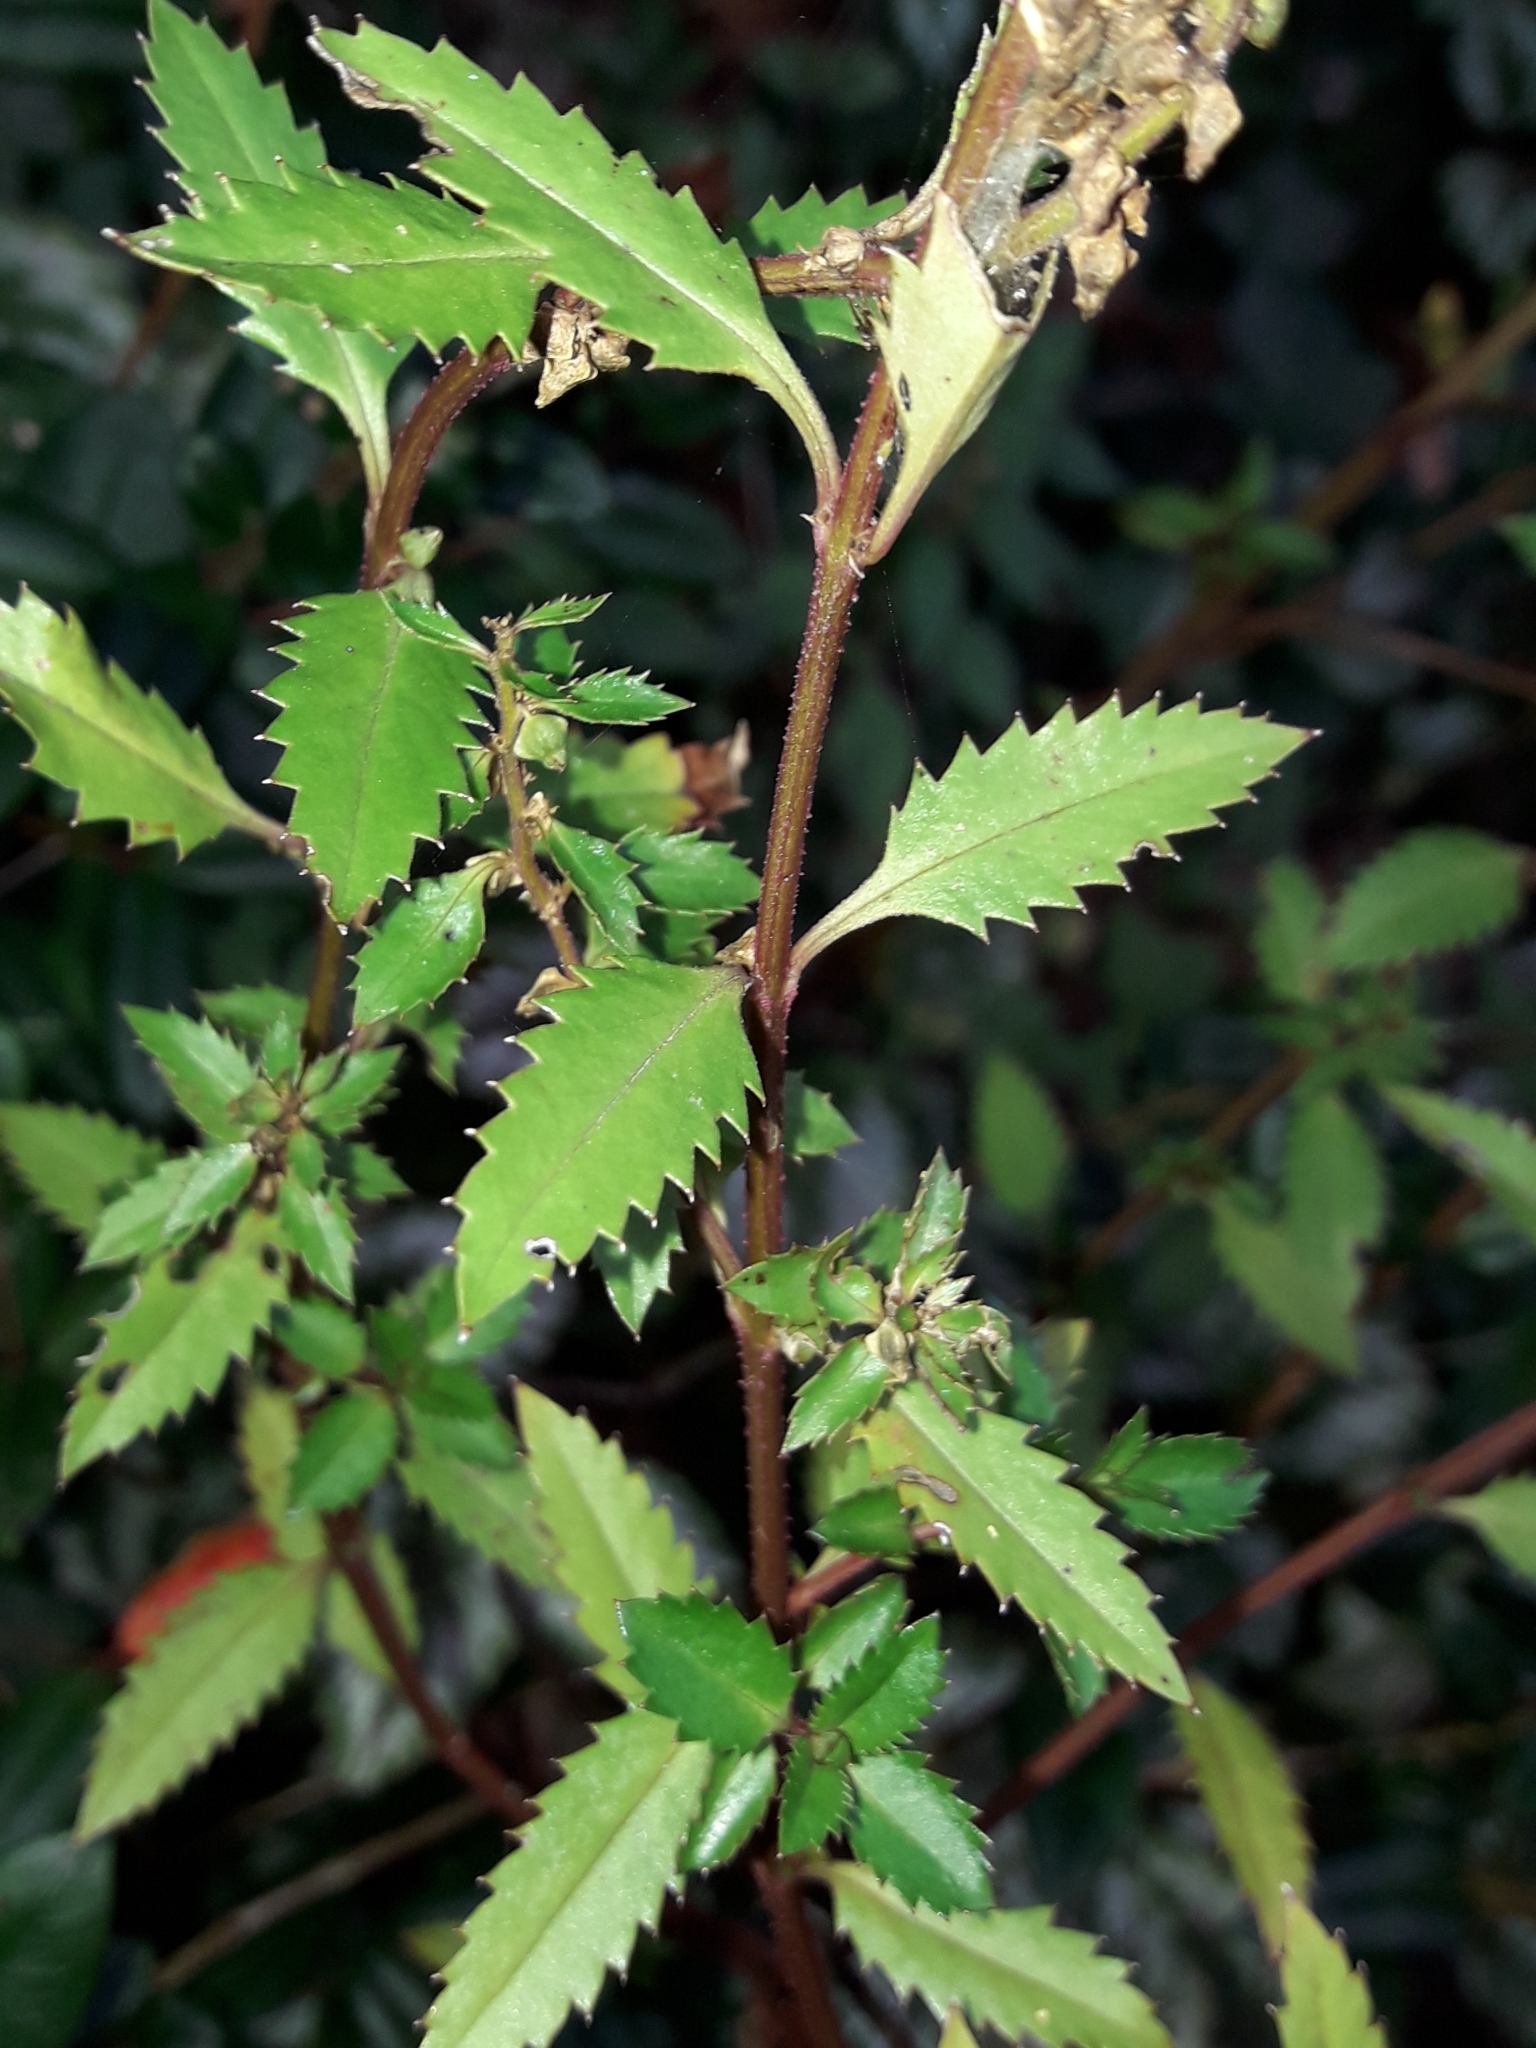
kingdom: Plantae
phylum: Tracheophyta
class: Magnoliopsida
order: Saxifragales
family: Haloragaceae
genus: Haloragis
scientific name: Haloragis erecta
